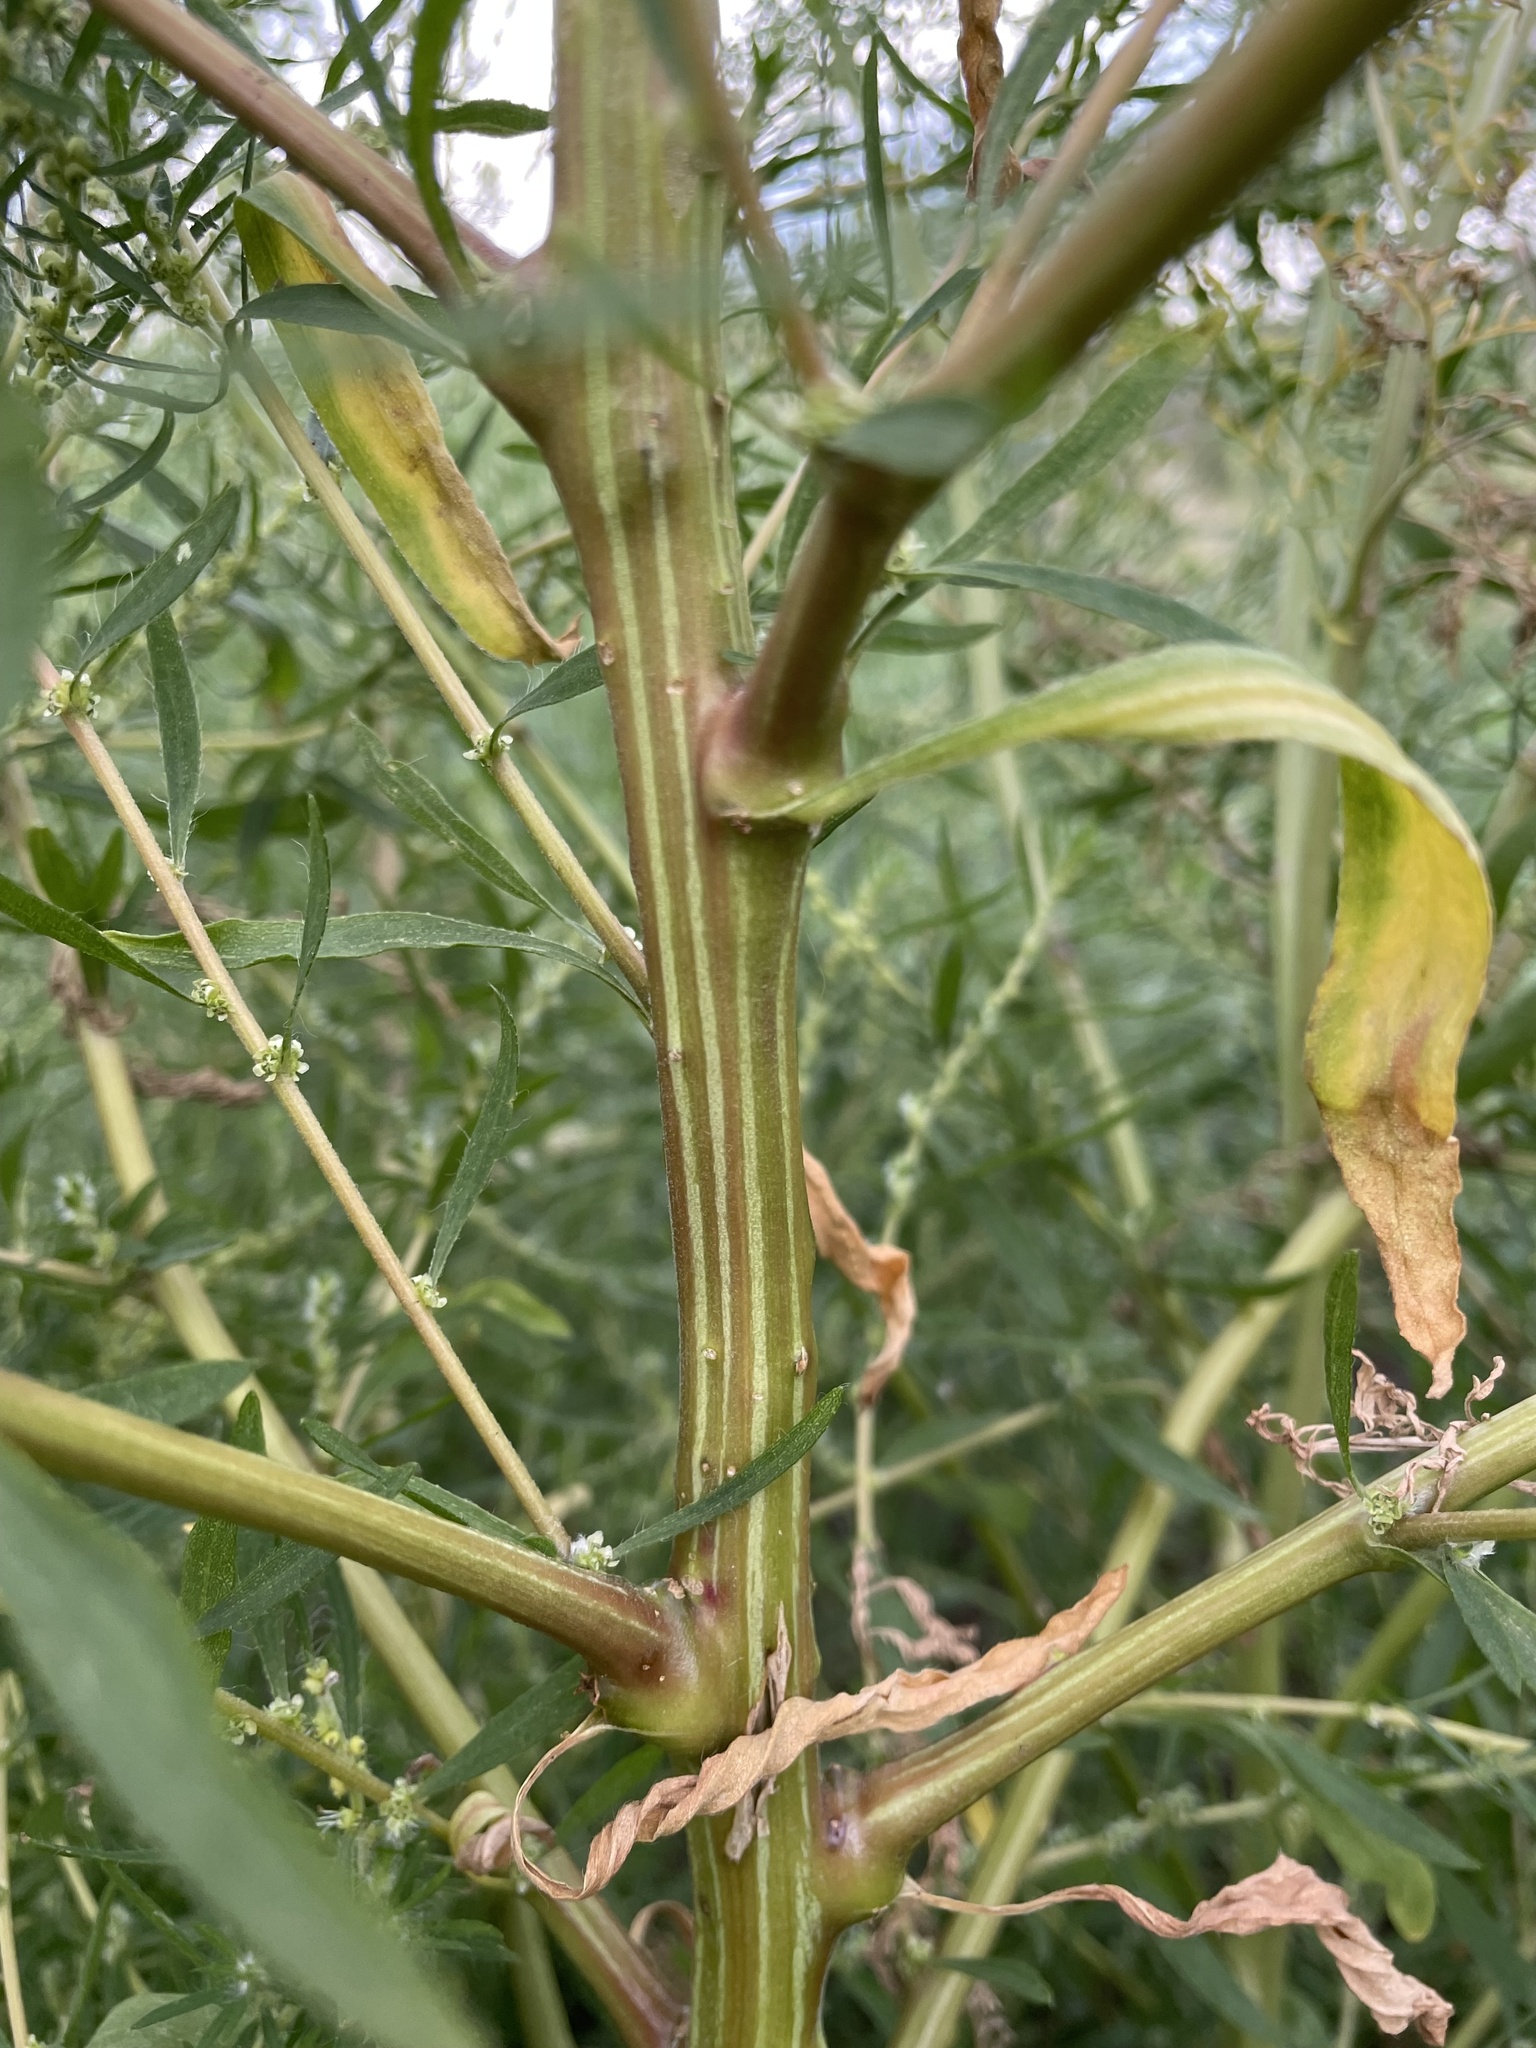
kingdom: Plantae
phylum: Tracheophyta
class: Magnoliopsida
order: Caryophyllales
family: Amaranthaceae
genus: Bassia
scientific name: Bassia scoparia
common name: Belvedere
